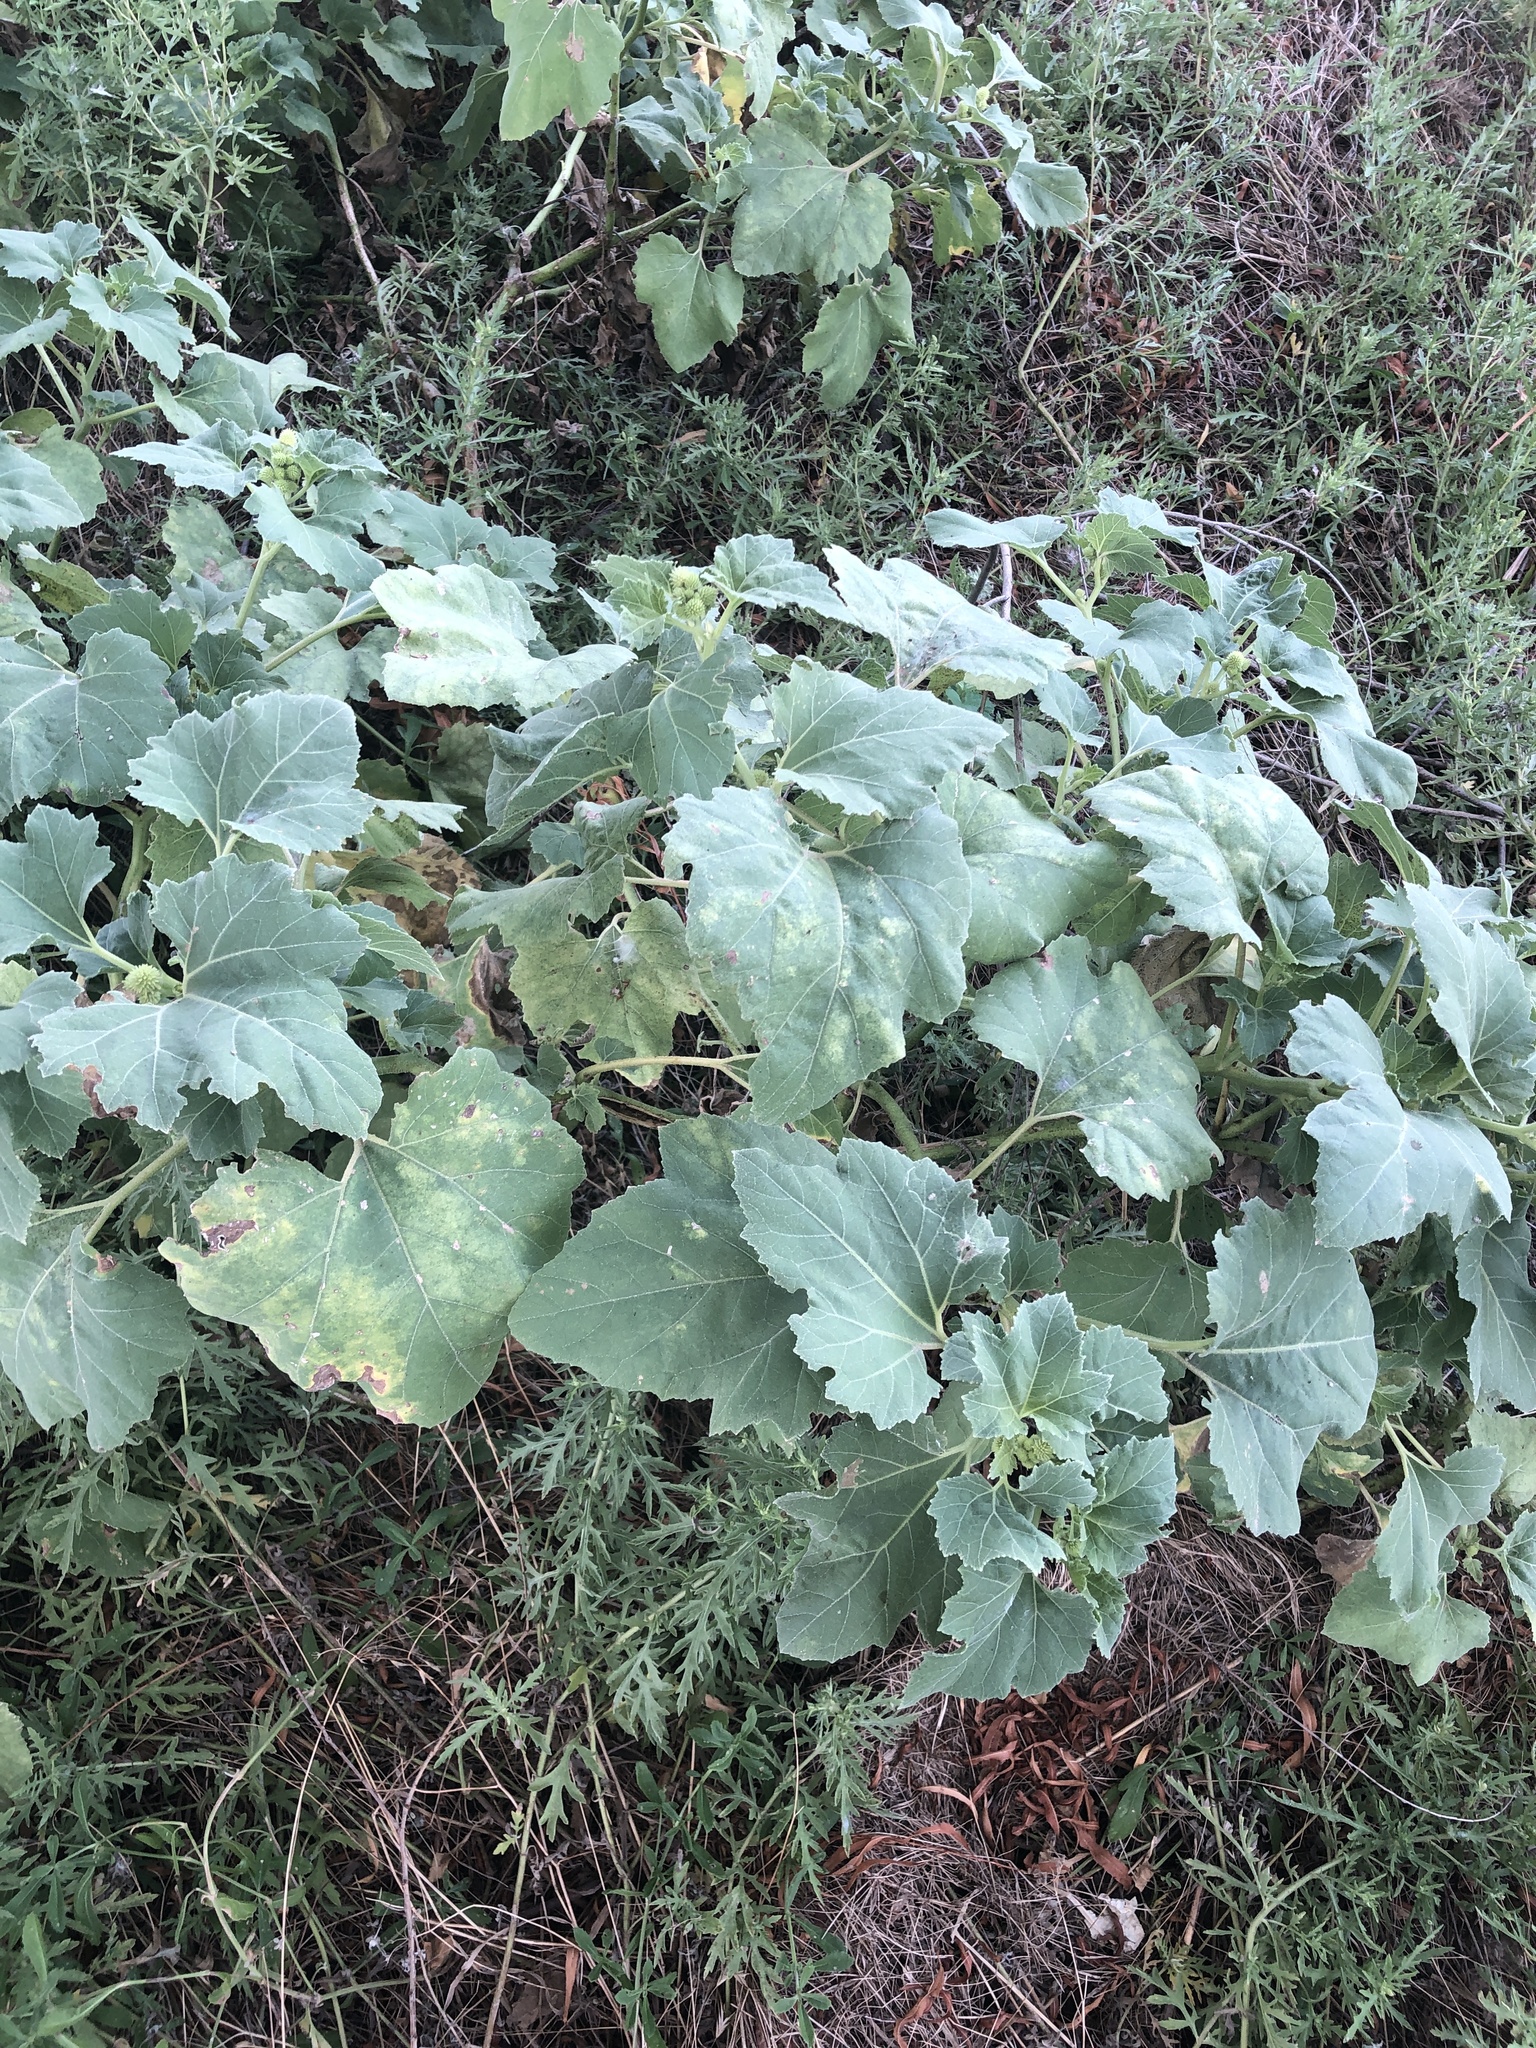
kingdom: Plantae
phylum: Tracheophyta
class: Magnoliopsida
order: Asterales
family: Asteraceae
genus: Xanthium
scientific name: Xanthium strumarium
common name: Rough cocklebur
